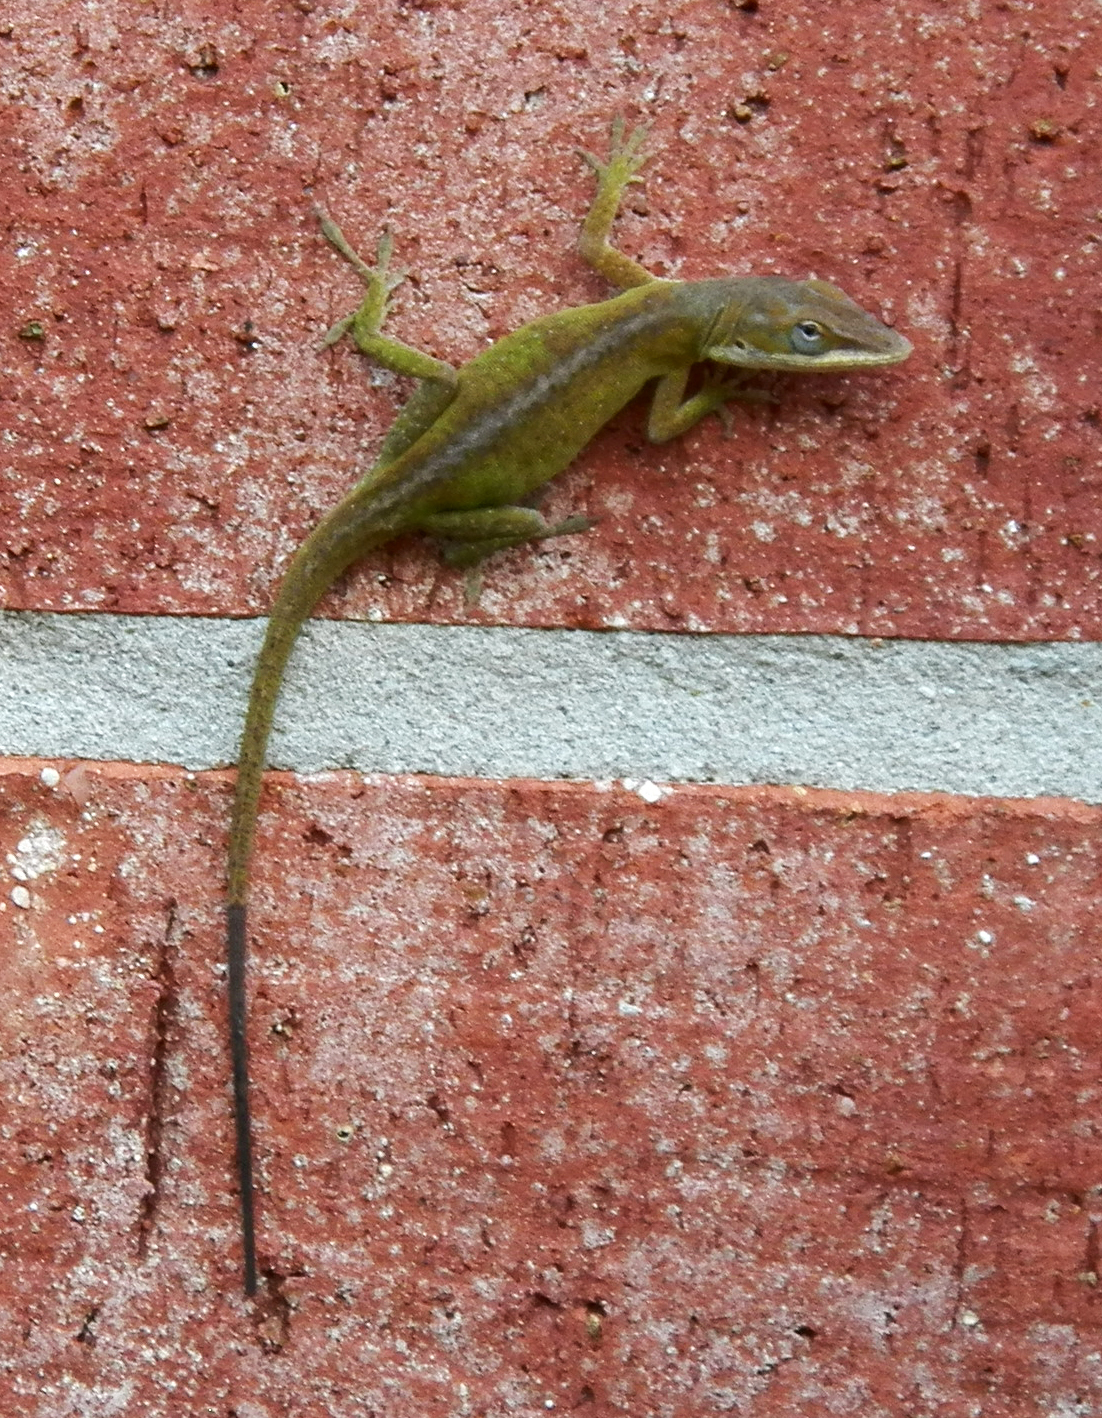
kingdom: Animalia
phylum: Chordata
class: Squamata
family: Dactyloidae
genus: Anolis
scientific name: Anolis carolinensis
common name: Green anole
